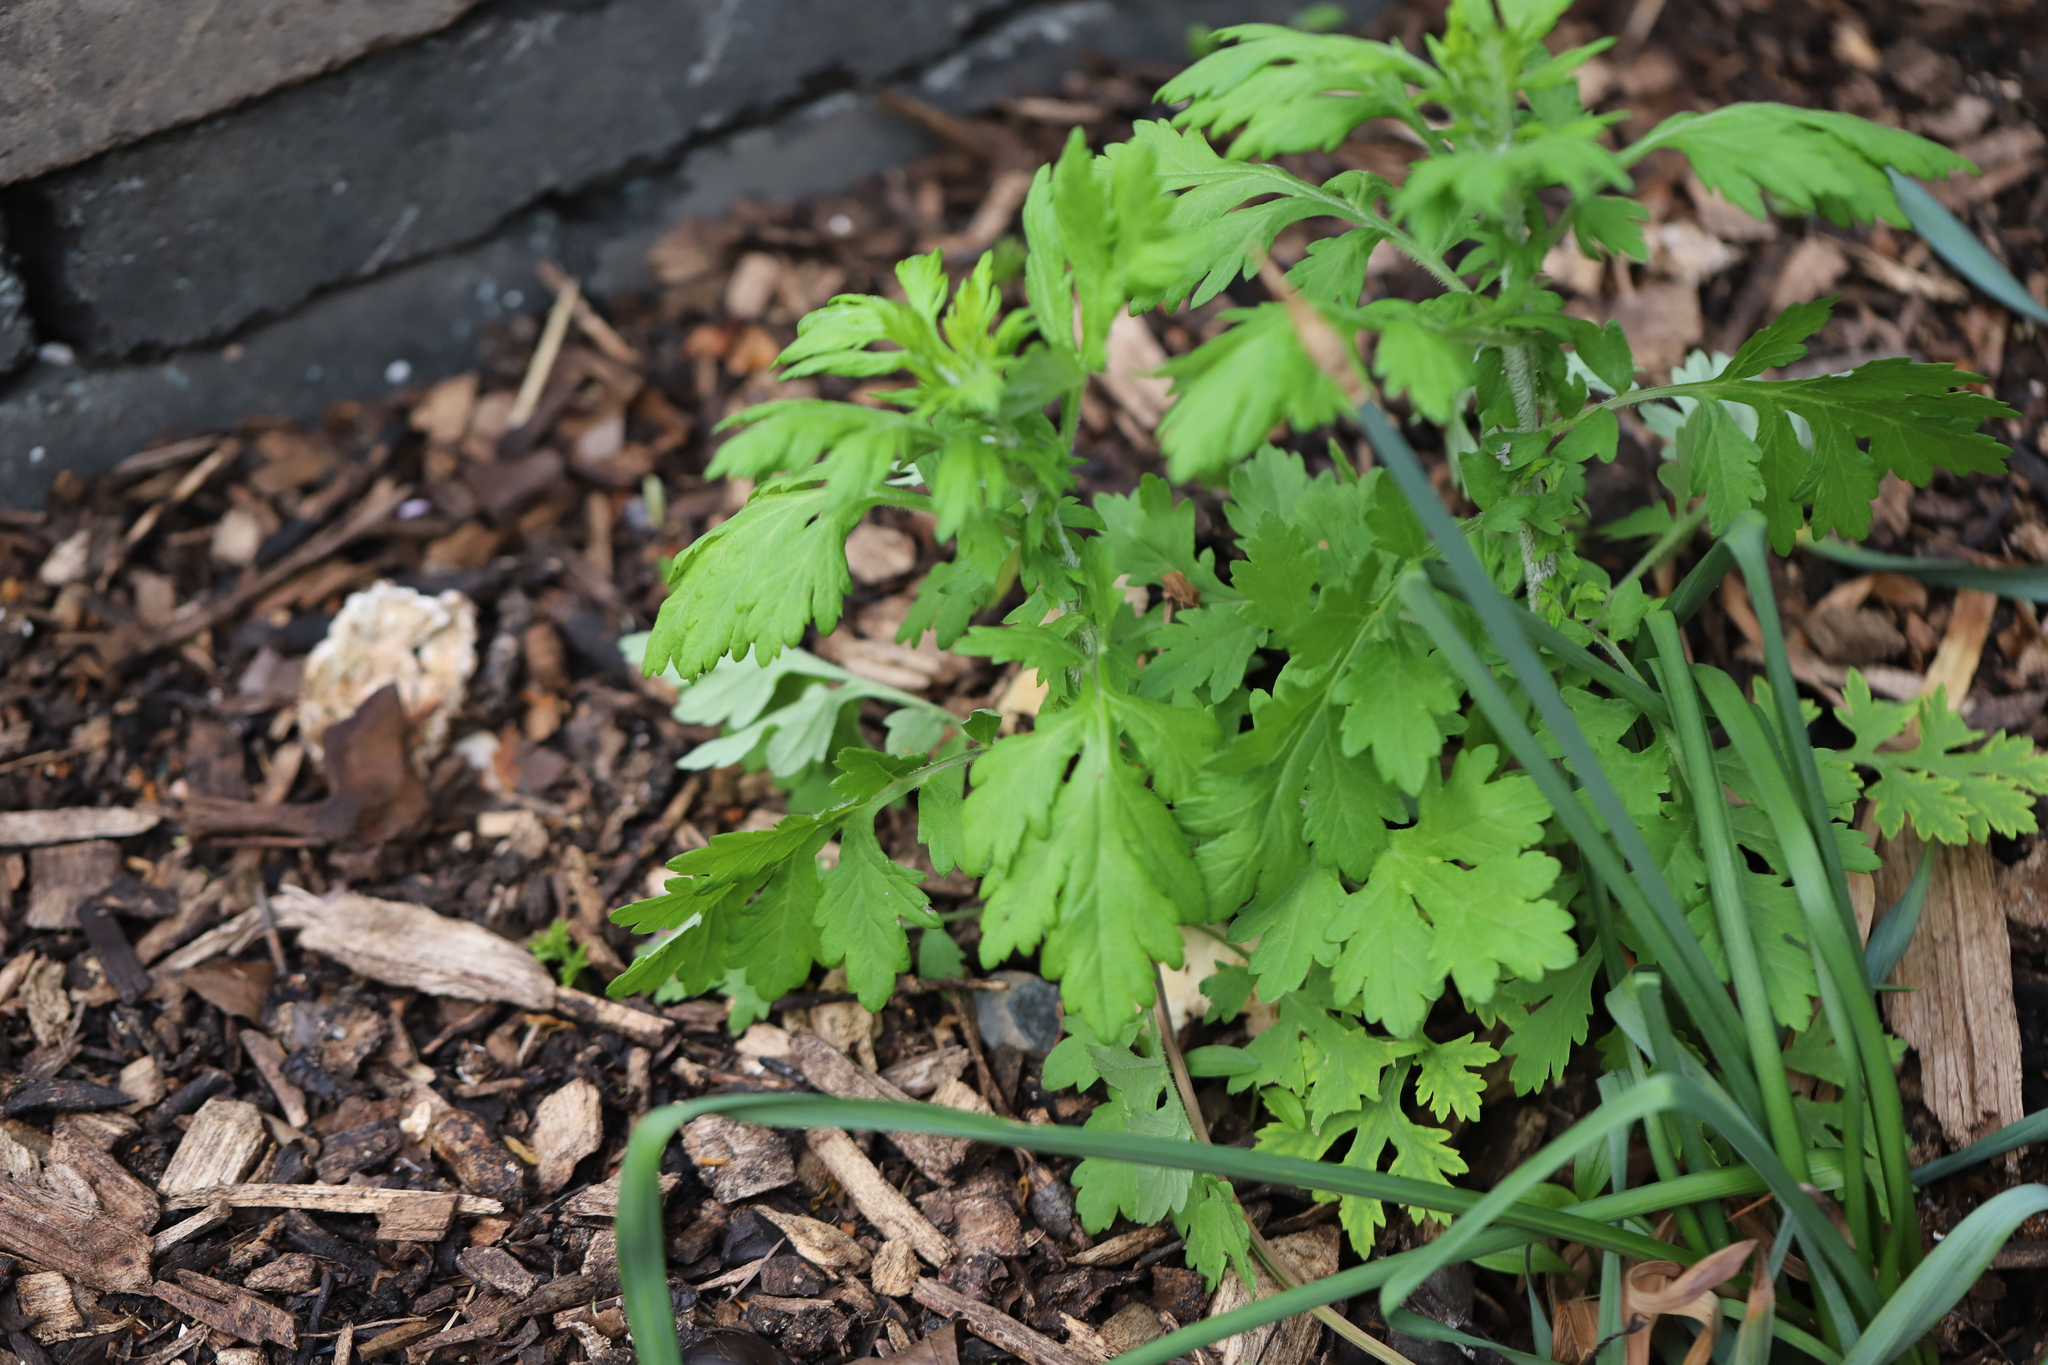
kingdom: Plantae
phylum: Tracheophyta
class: Magnoliopsida
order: Asterales
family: Asteraceae
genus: Artemisia
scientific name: Artemisia vulgaris
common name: Mugwort
